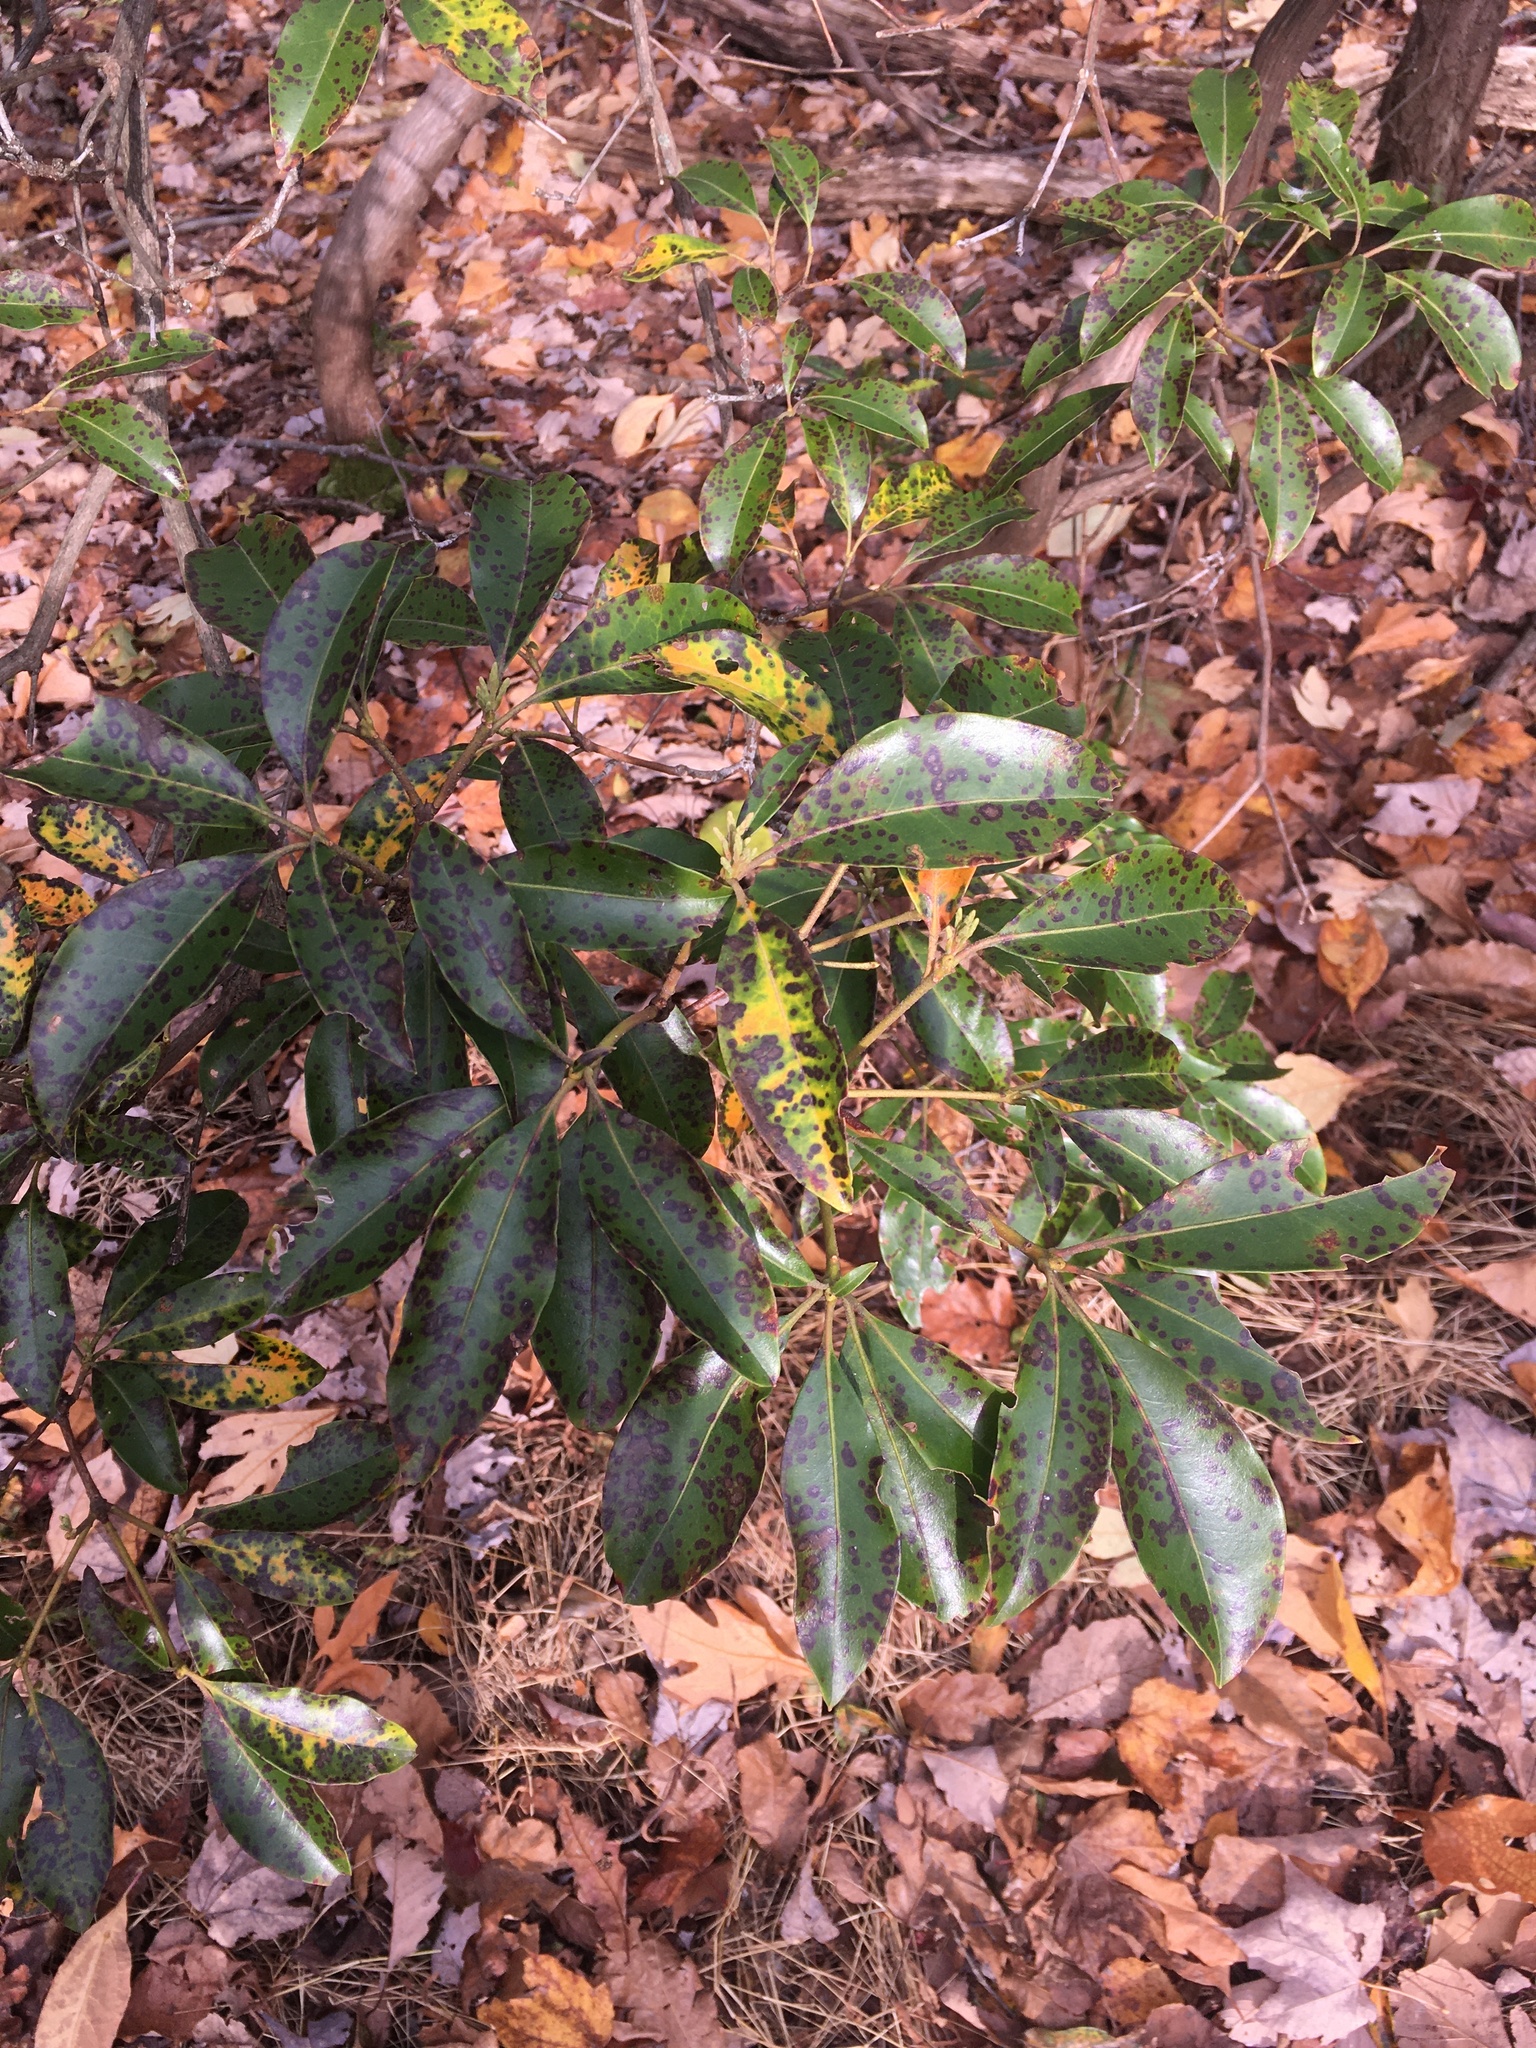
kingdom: Plantae
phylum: Tracheophyta
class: Magnoliopsida
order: Ericales
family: Ericaceae
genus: Kalmia
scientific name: Kalmia latifolia
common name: Mountain-laurel
